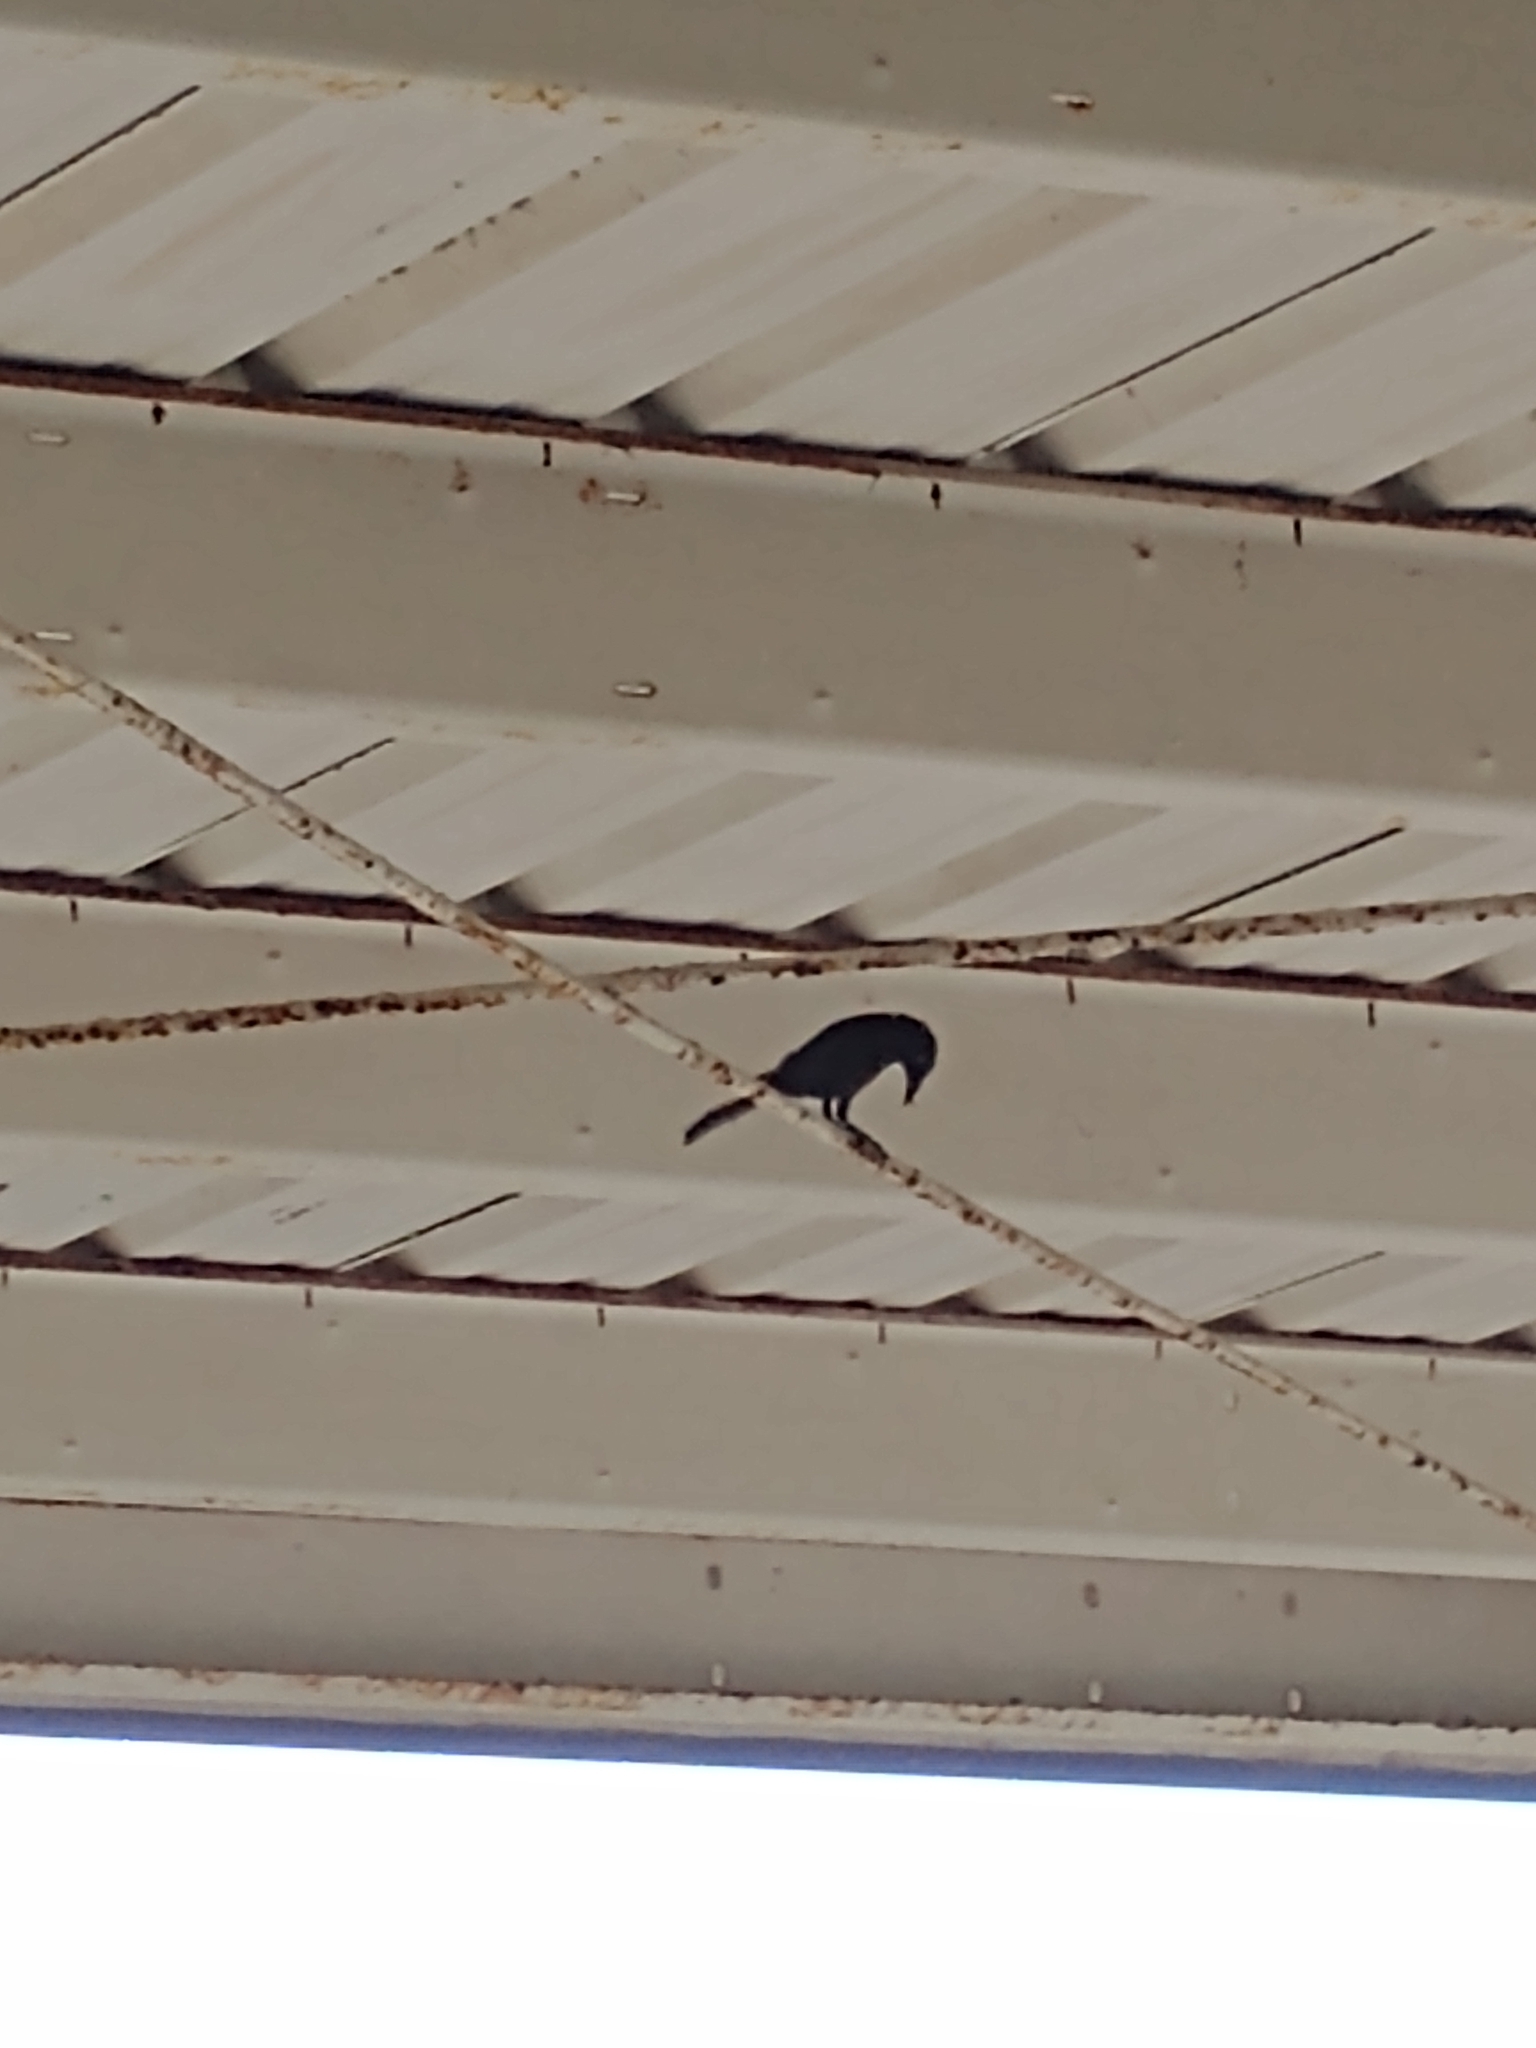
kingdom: Animalia
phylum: Chordata
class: Aves
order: Passeriformes
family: Icteridae
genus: Quiscalus
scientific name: Quiscalus quiscula
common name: Common grackle
